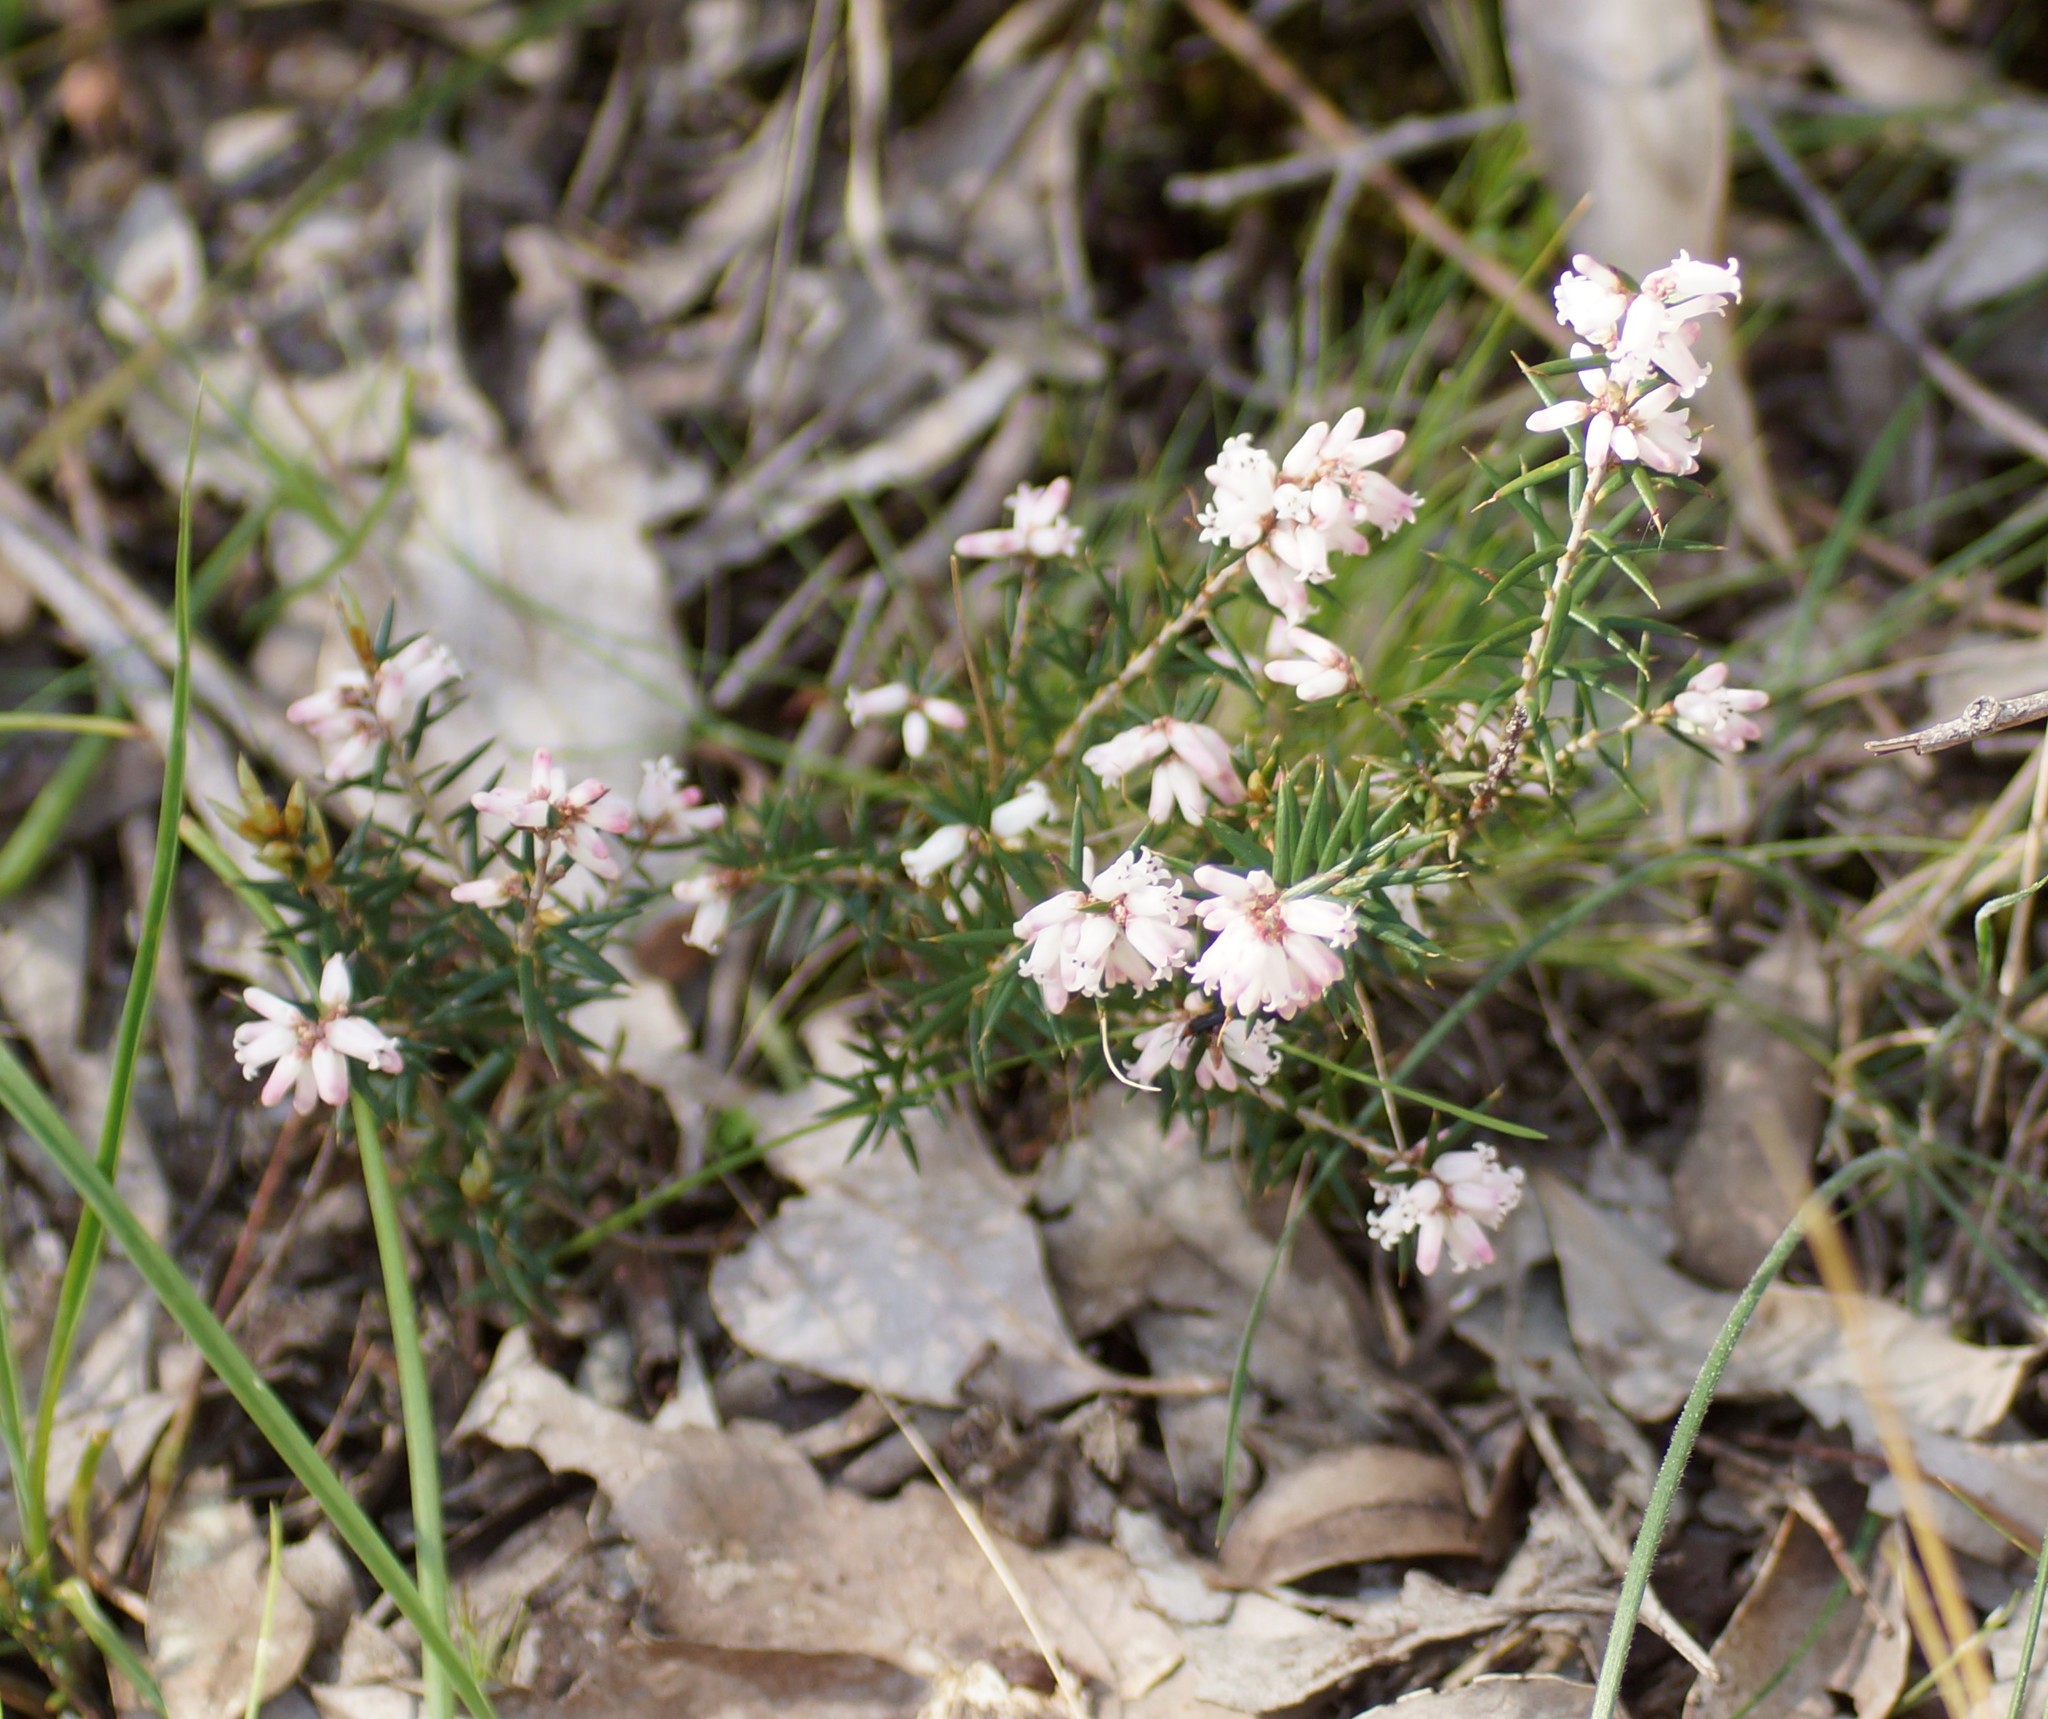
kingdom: Plantae
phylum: Tracheophyta
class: Magnoliopsida
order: Ericales
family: Ericaceae
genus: Lissanthe
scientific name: Lissanthe strigosa
